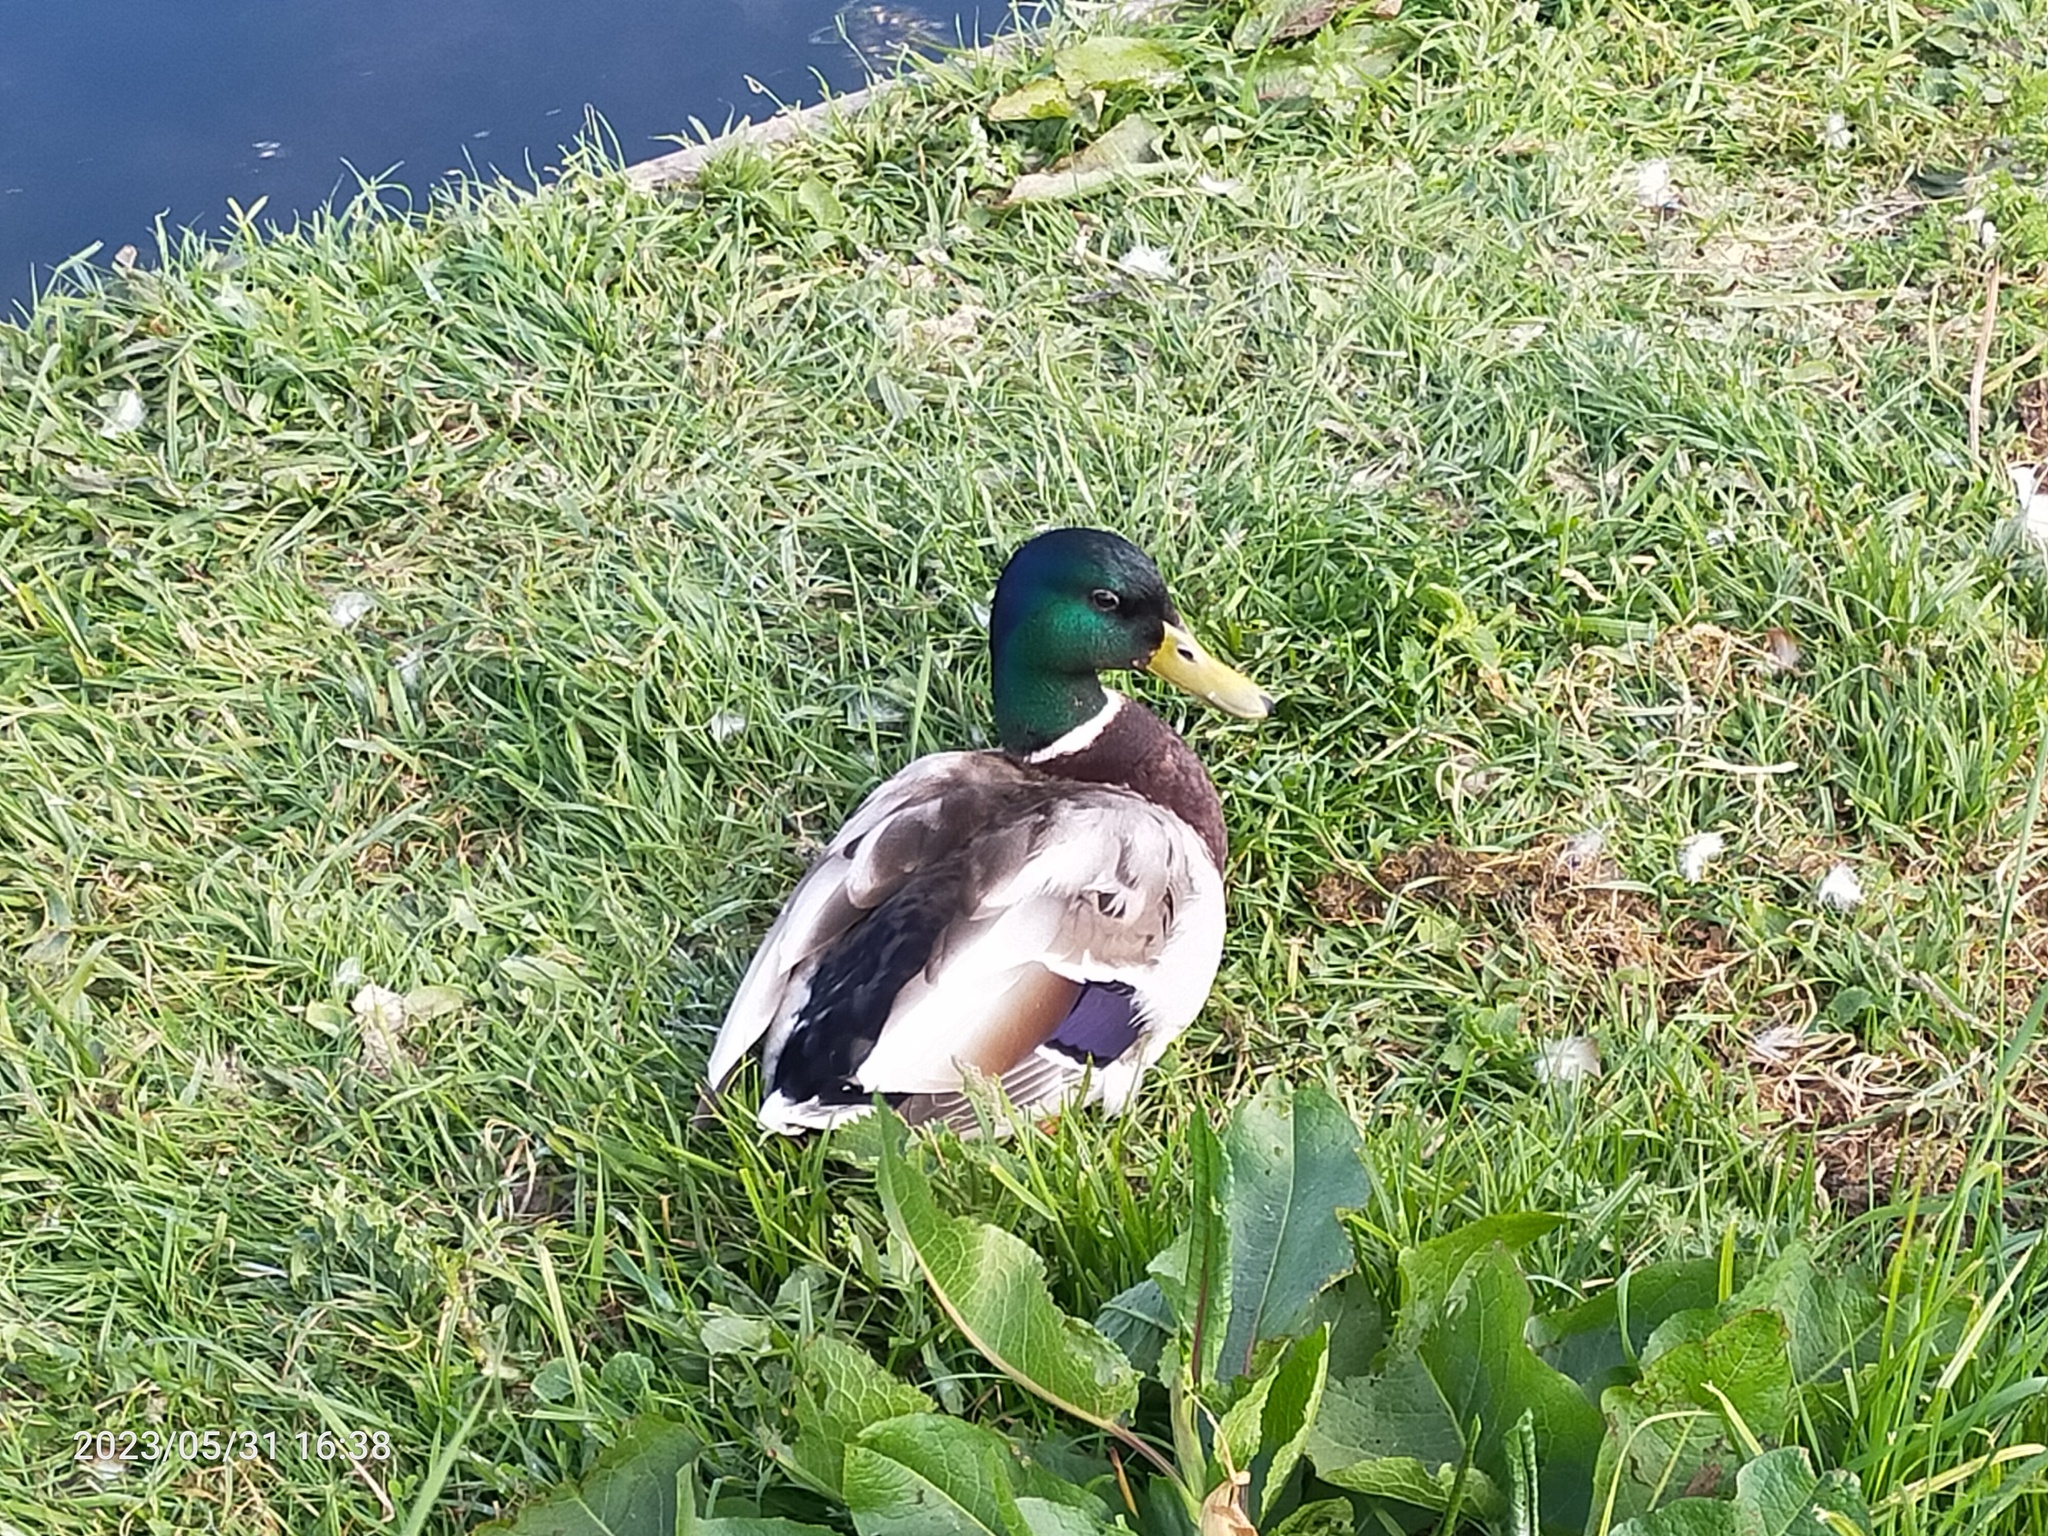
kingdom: Animalia
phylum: Chordata
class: Aves
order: Anseriformes
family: Anatidae
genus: Anas
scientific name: Anas platyrhynchos
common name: Mallard
